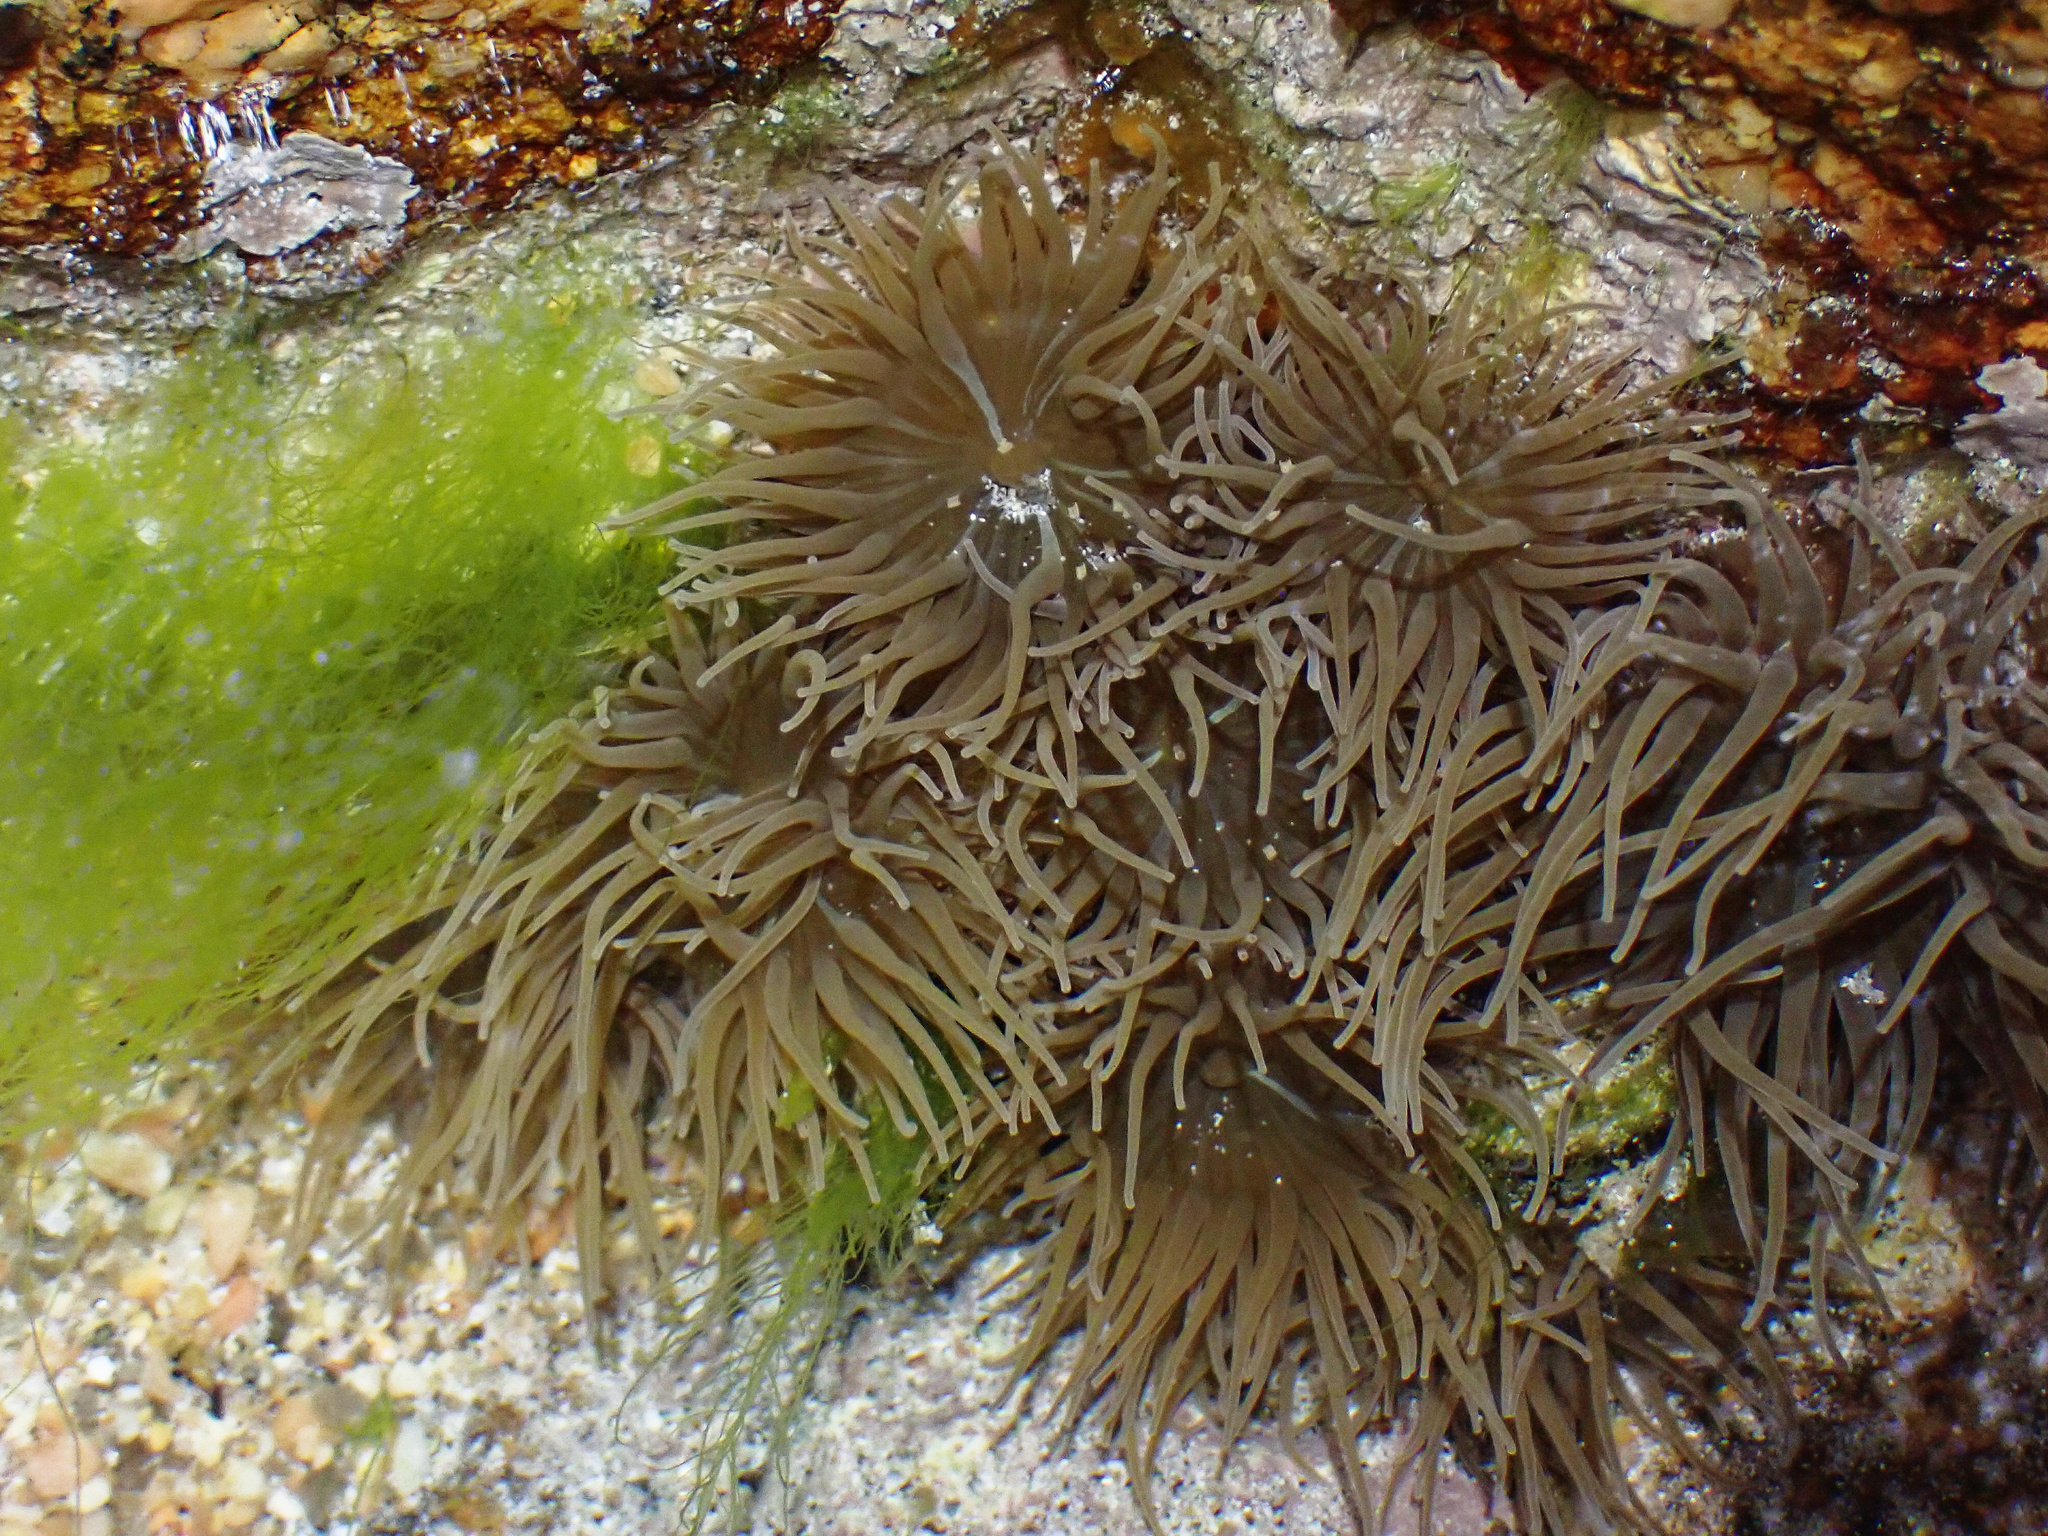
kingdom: Animalia
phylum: Cnidaria
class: Anthozoa
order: Actiniaria
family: Actiniidae
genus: Anemonia
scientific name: Anemonia viridis
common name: Snakelocks anemone
